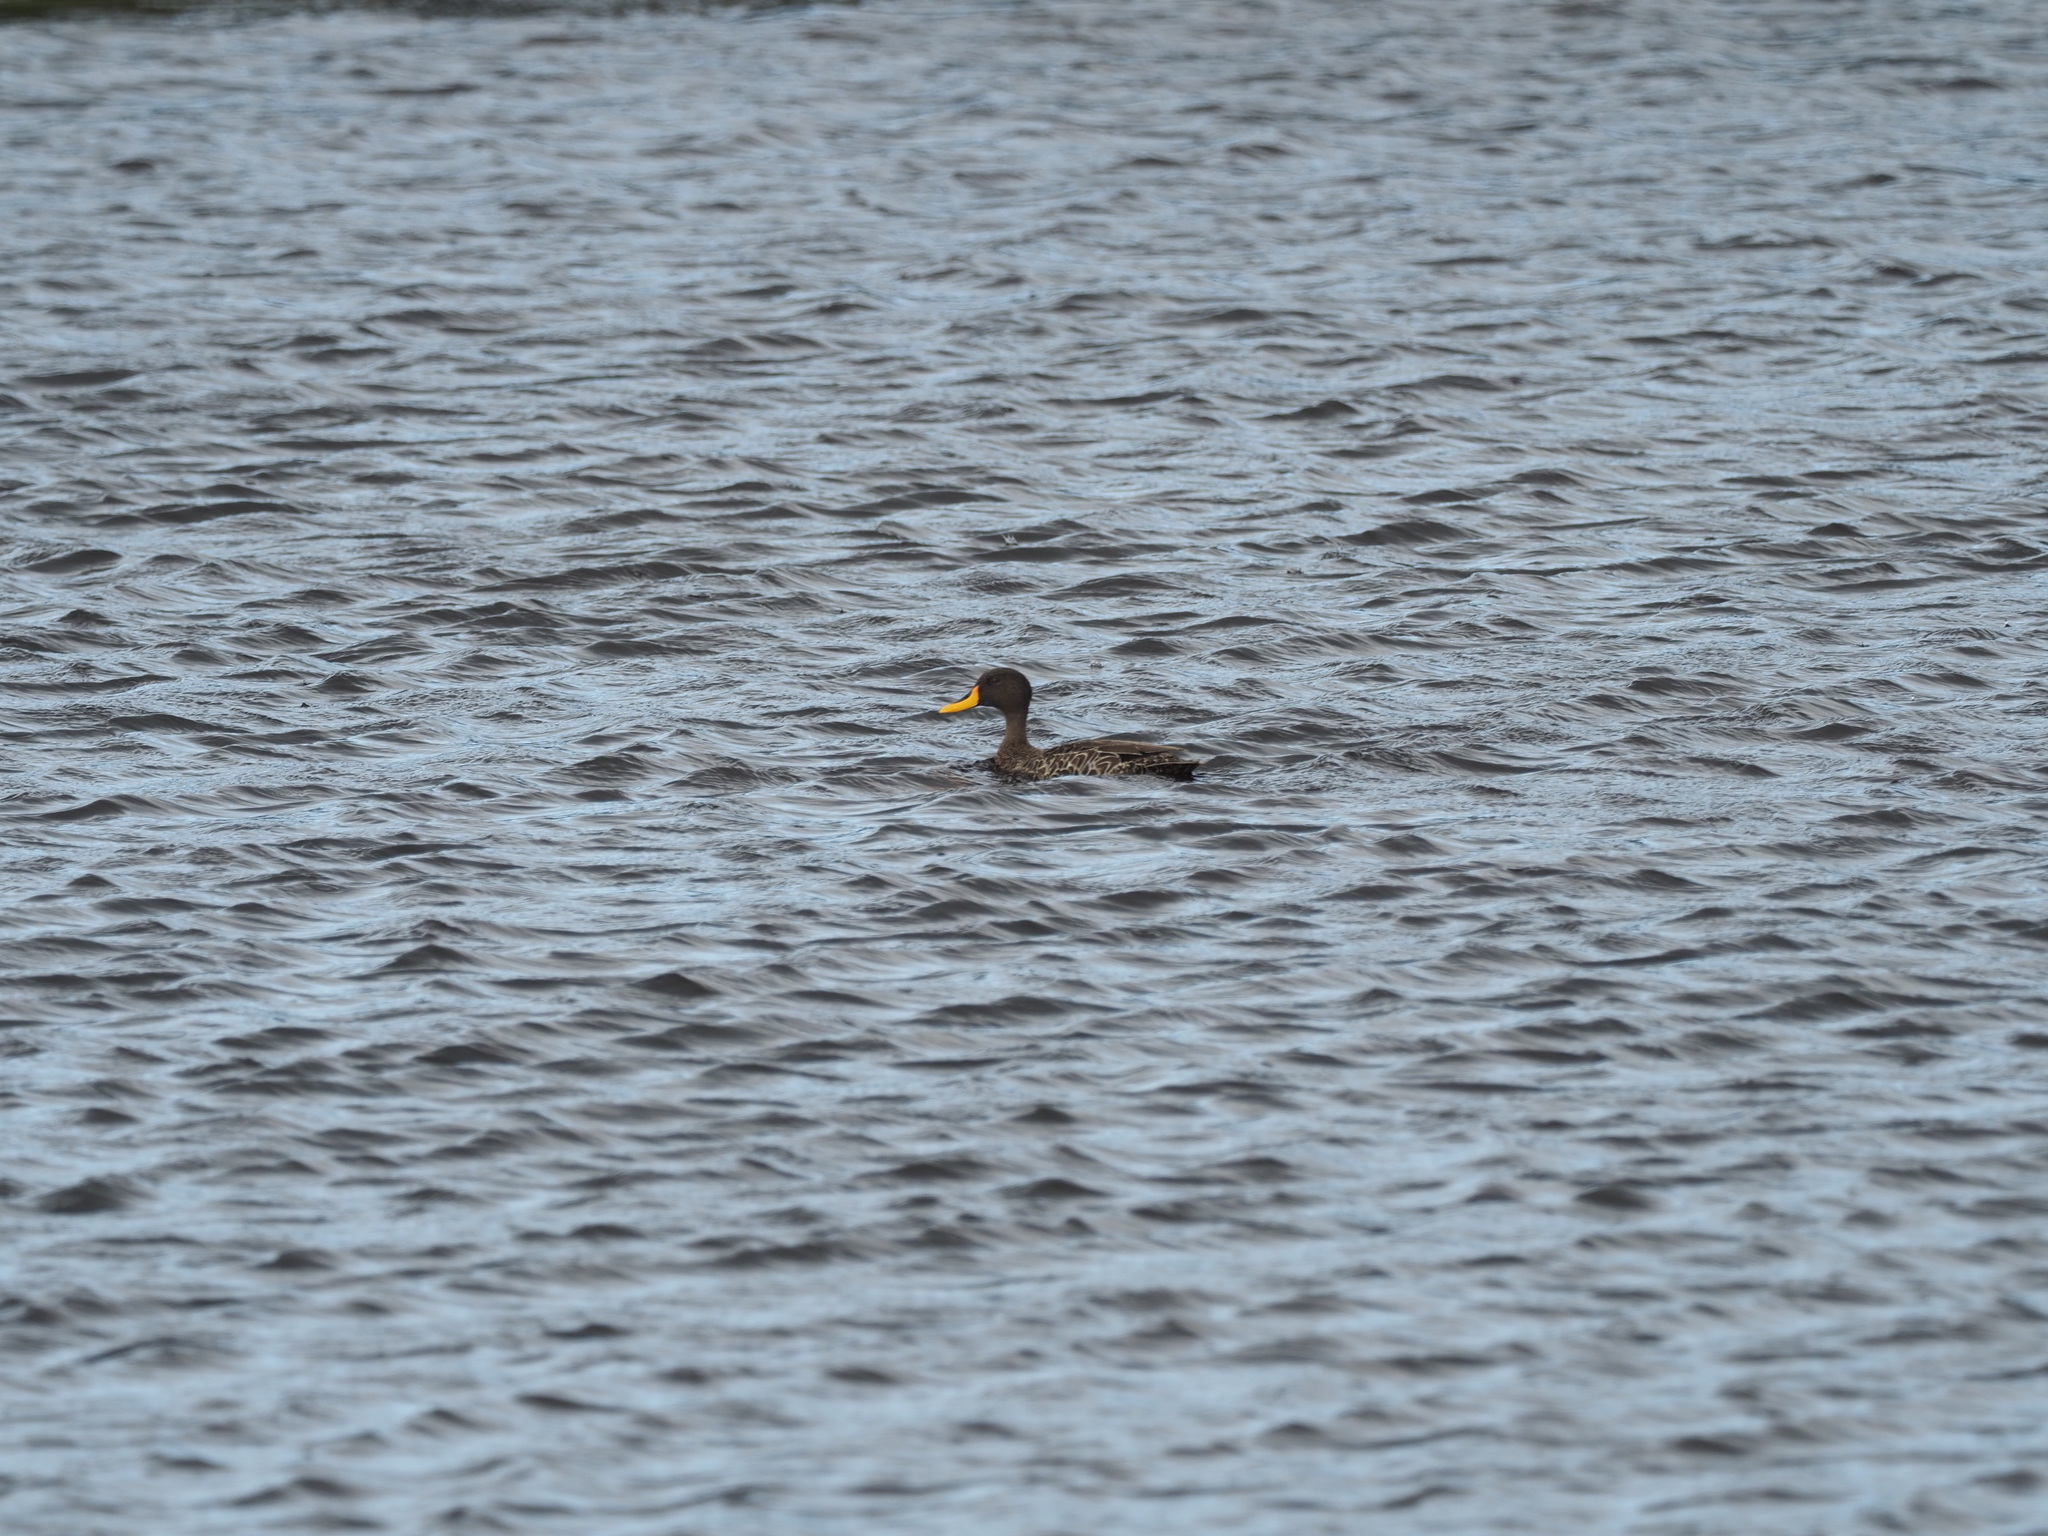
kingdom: Animalia
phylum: Chordata
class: Aves
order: Anseriformes
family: Anatidae
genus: Anas
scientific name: Anas undulata
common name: Yellow-billed duck
